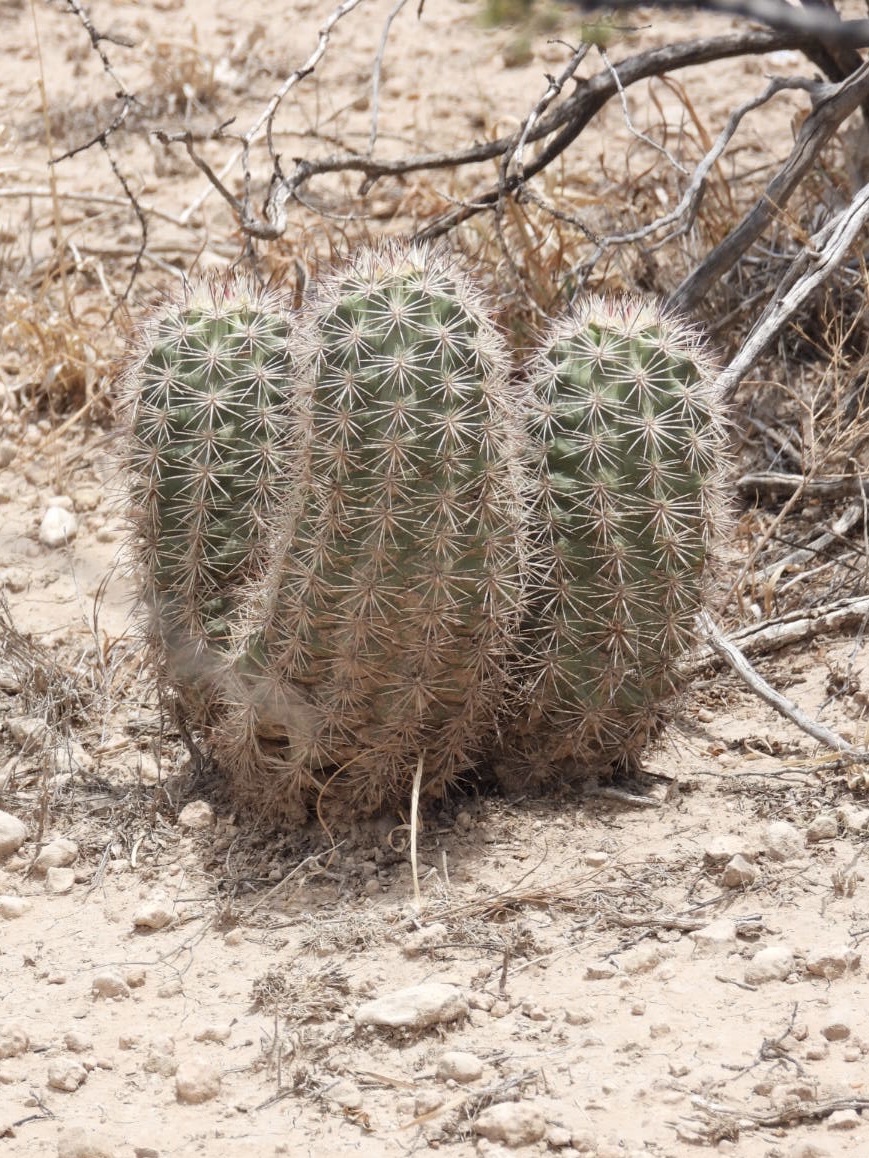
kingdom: Plantae
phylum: Tracheophyta
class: Magnoliopsida
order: Caryophyllales
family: Cactaceae
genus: Echinocereus
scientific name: Echinocereus roetteri
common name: Lloyd's hedgehog cactus
